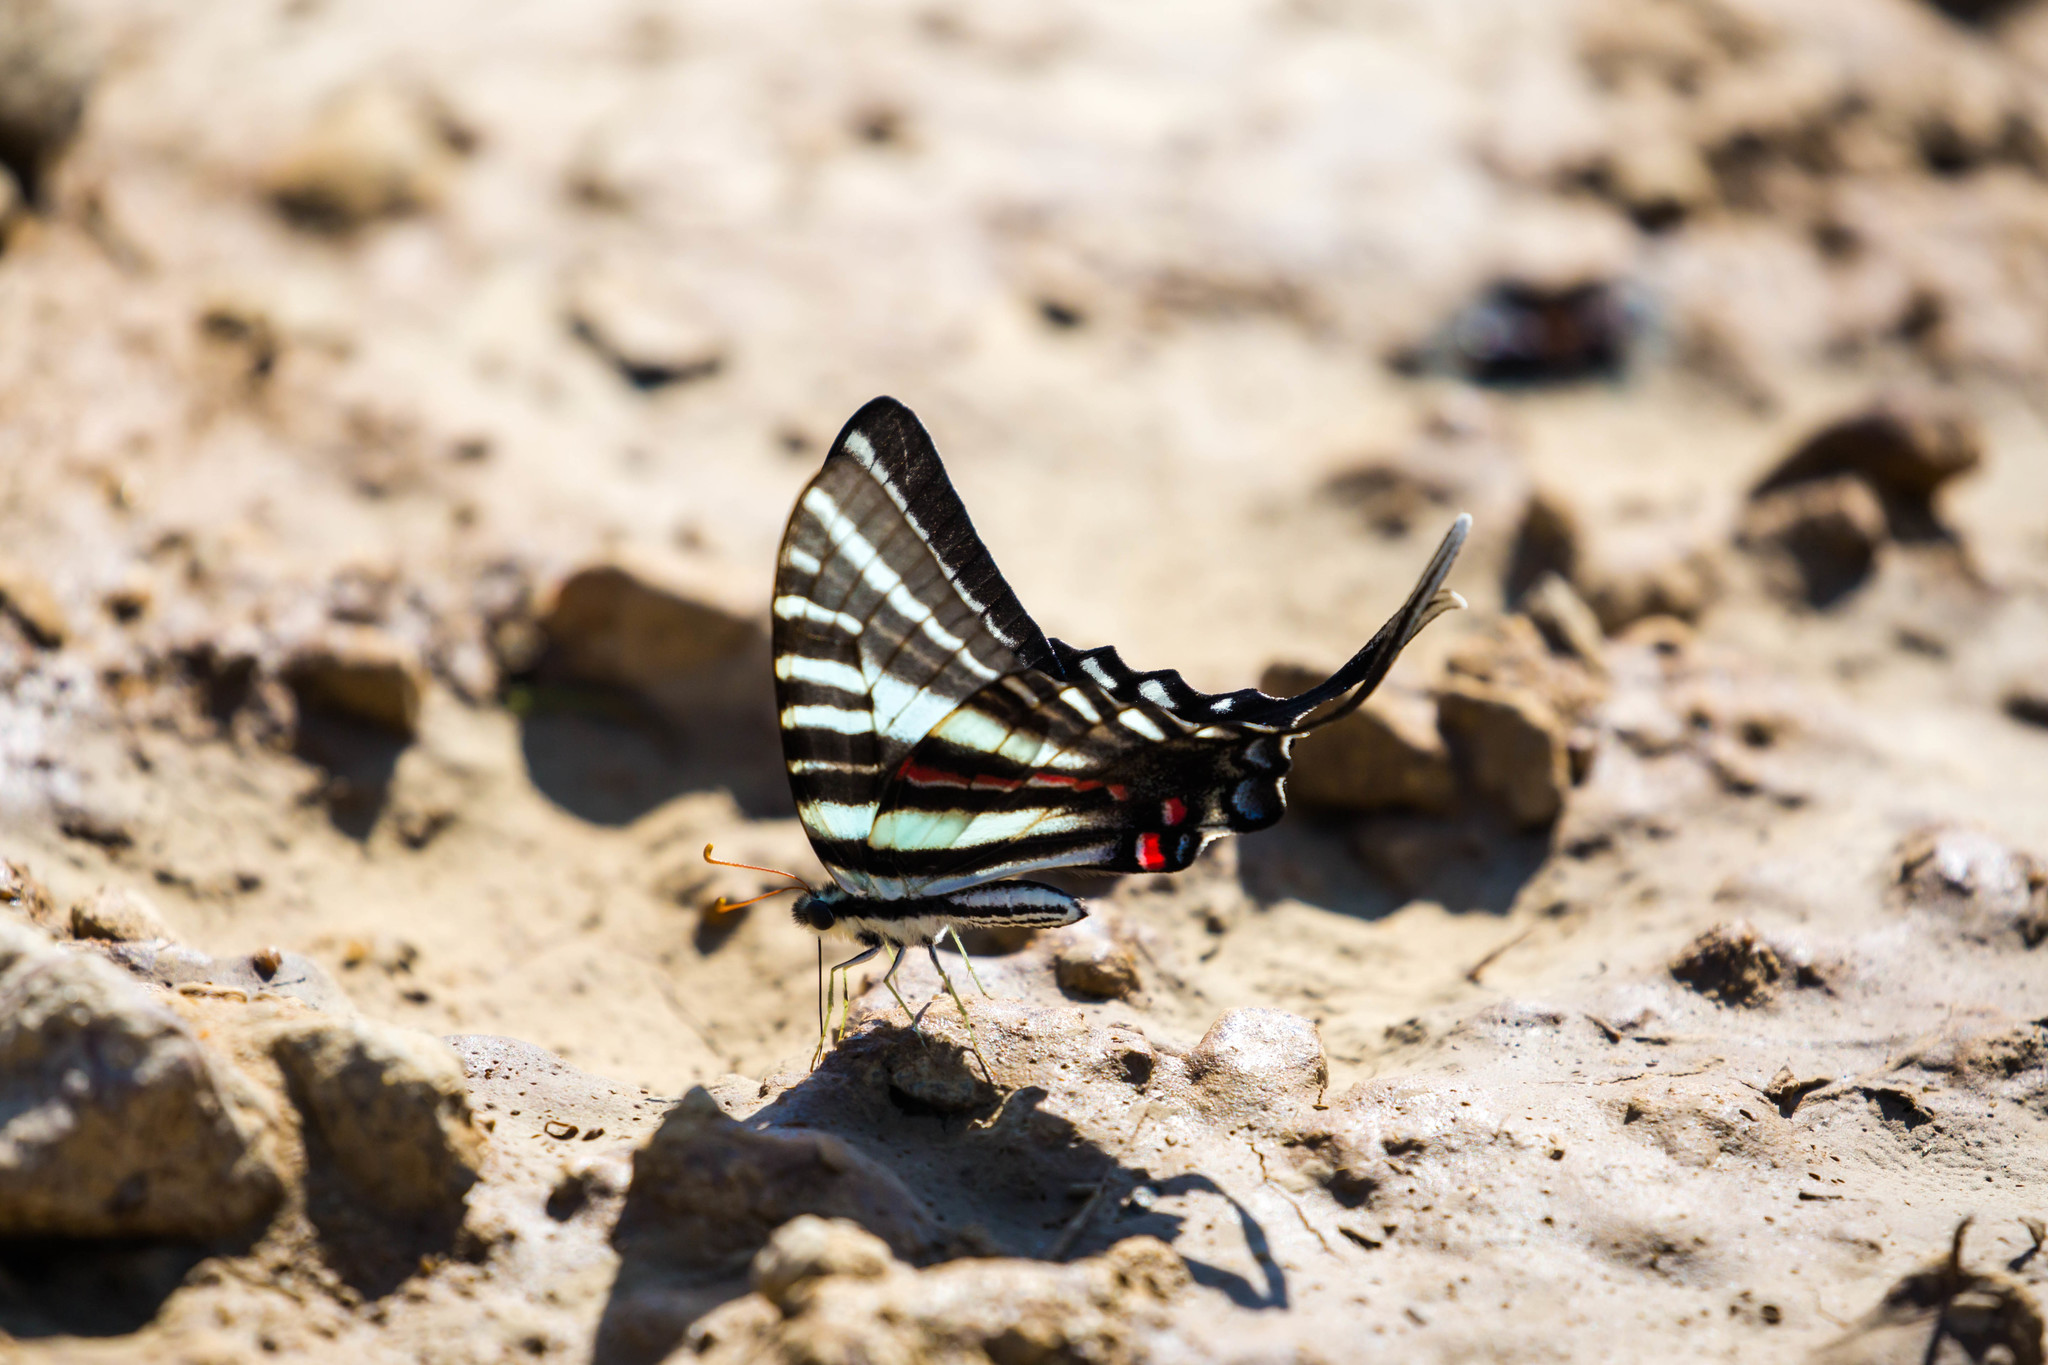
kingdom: Animalia
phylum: Arthropoda
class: Insecta
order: Lepidoptera
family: Papilionidae
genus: Protographium
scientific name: Protographium marcellus
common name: Zebra swallowtail
